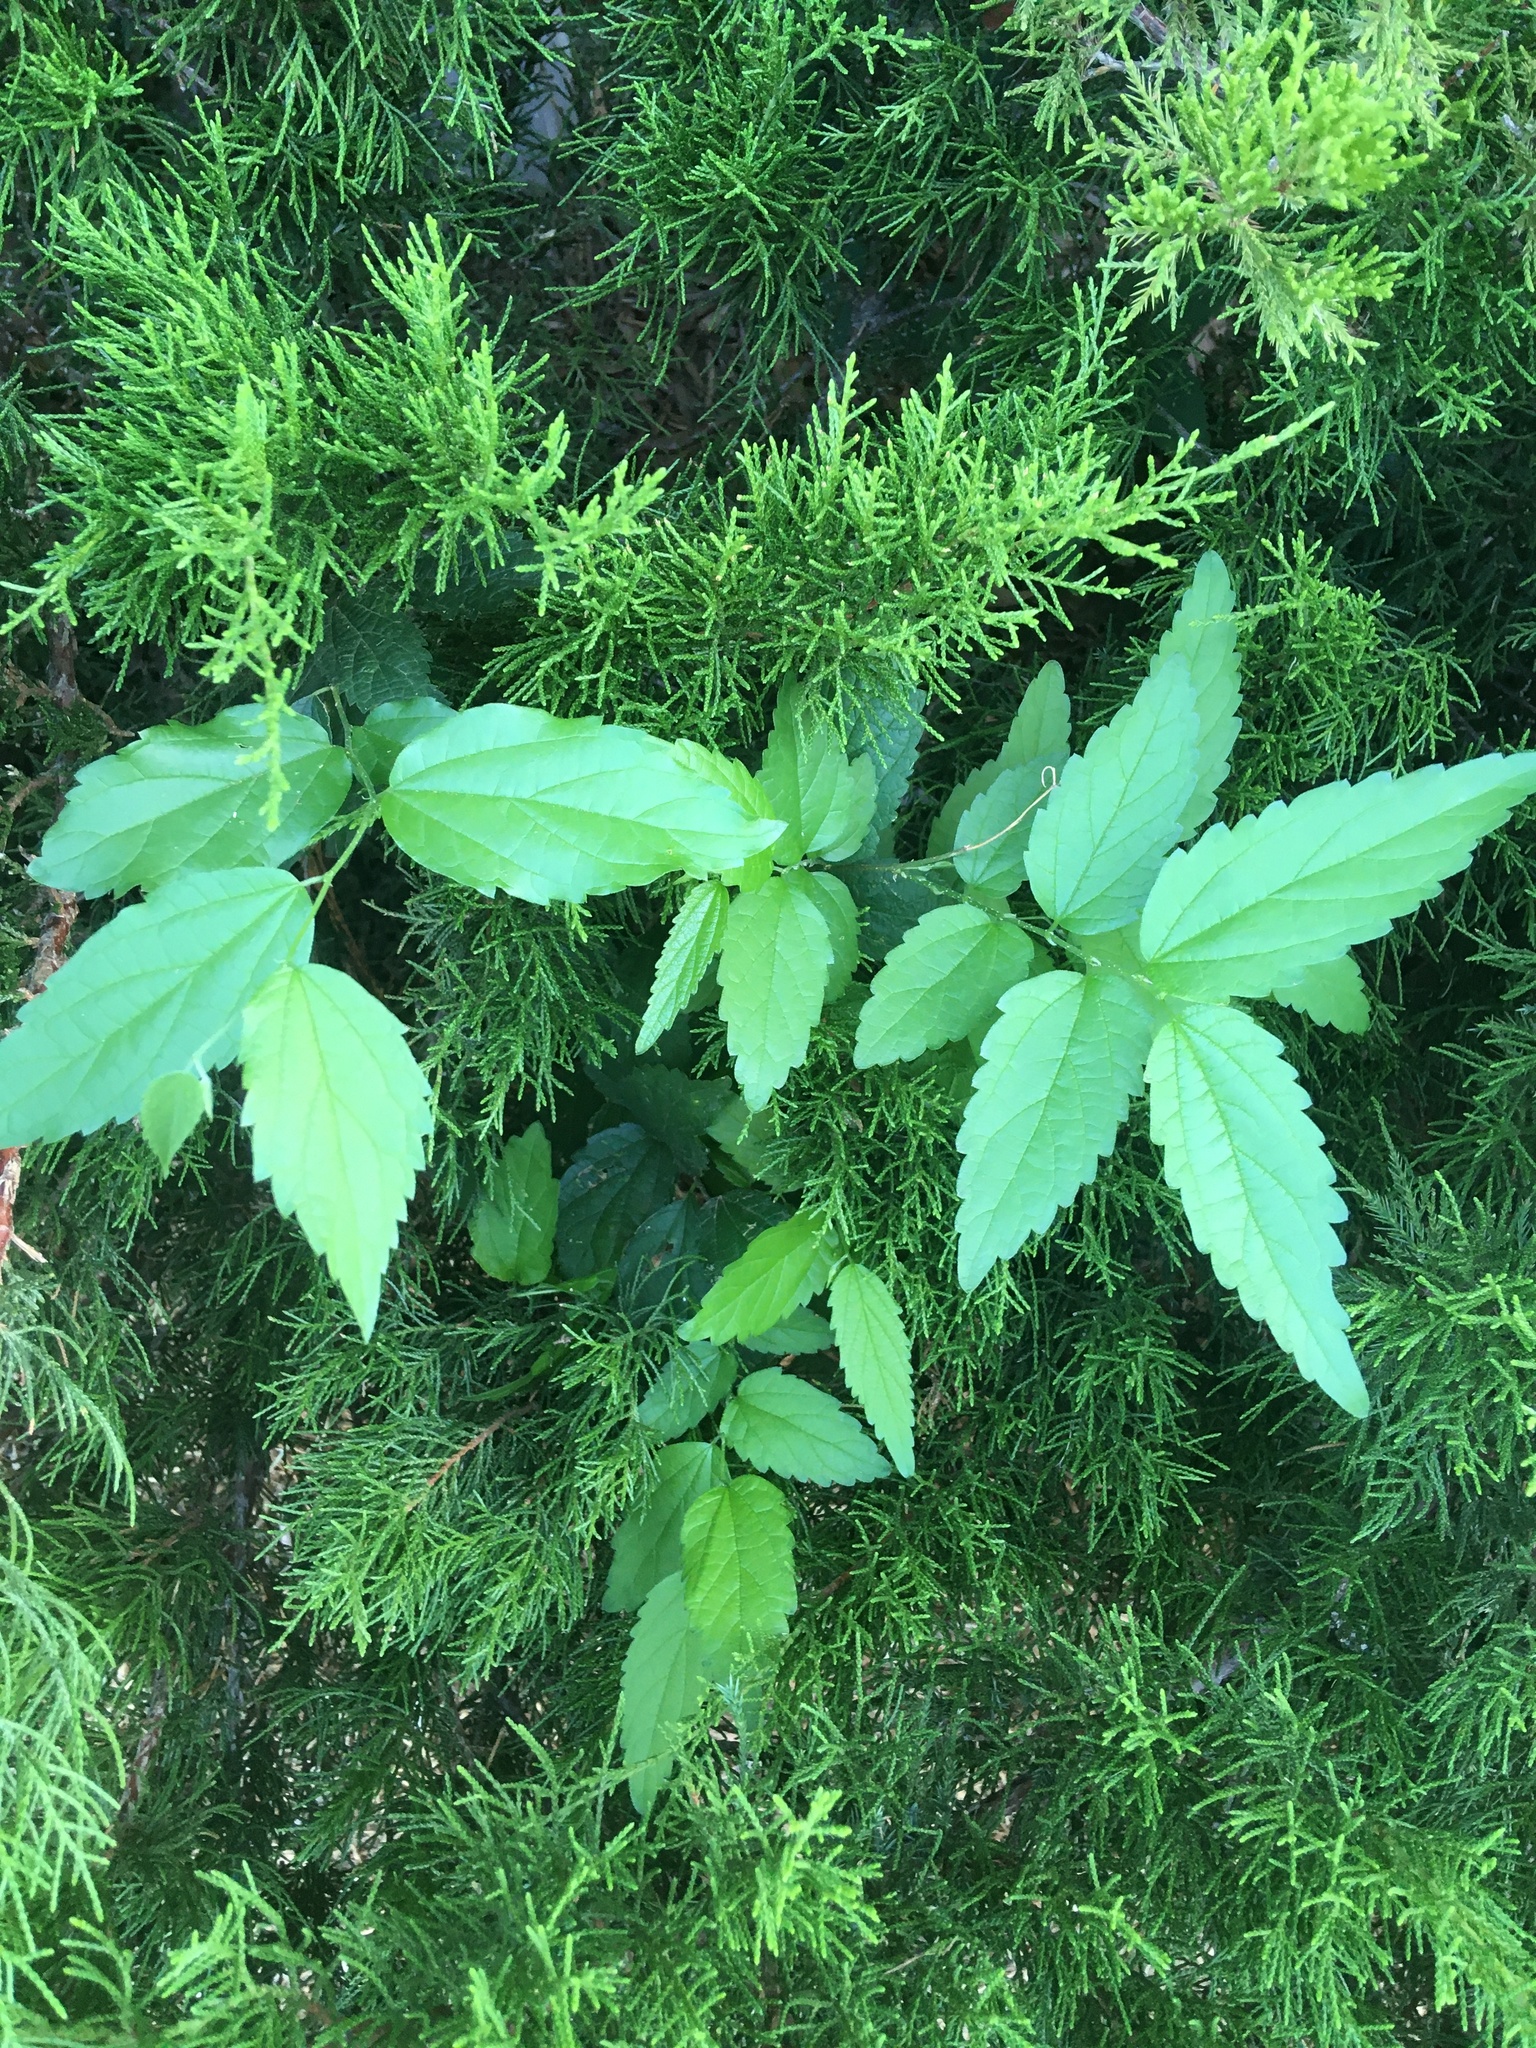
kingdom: Plantae
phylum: Tracheophyta
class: Magnoliopsida
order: Rosales
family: Cannabaceae
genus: Celtis
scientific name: Celtis laevigata
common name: Sugarberry
